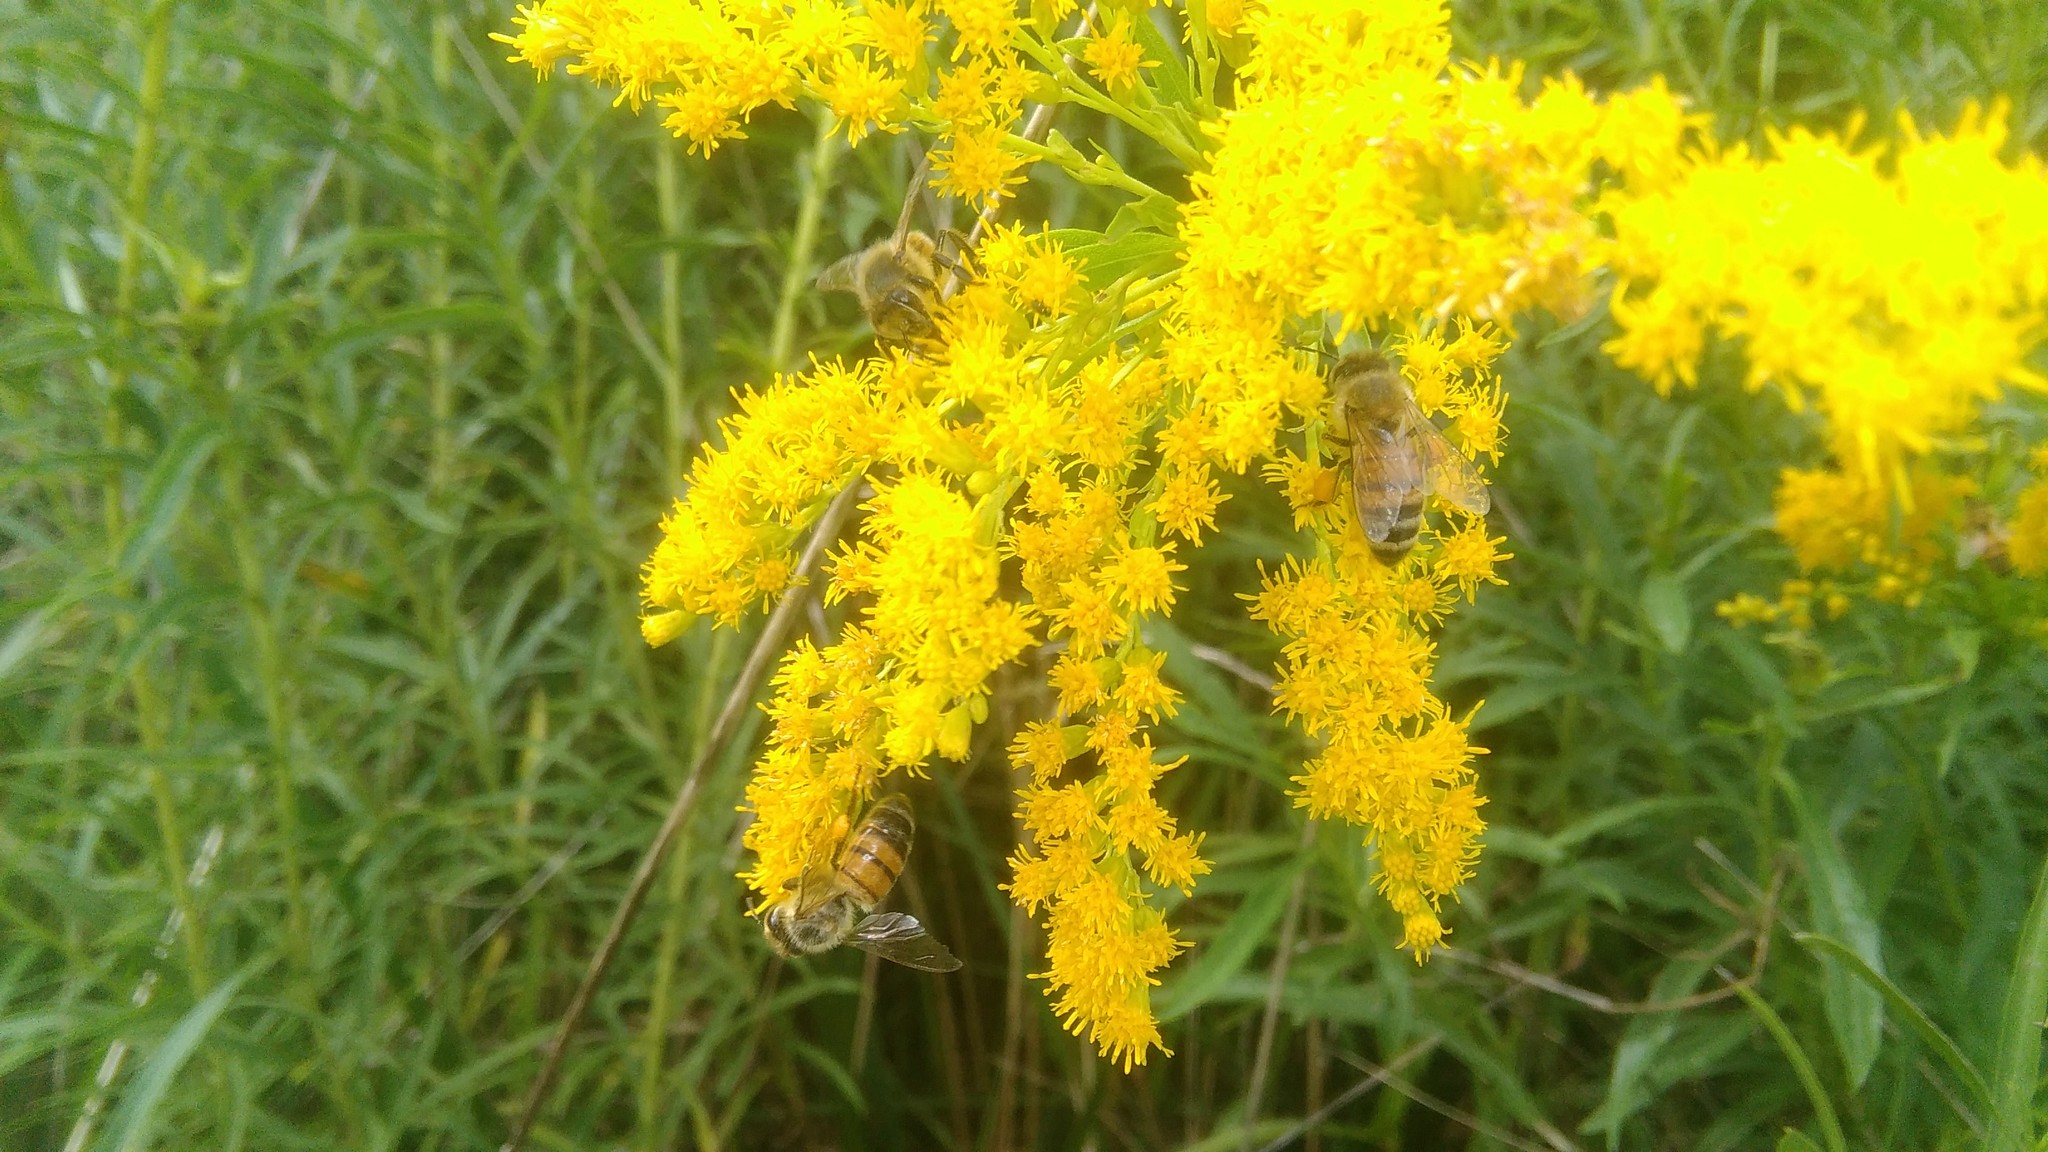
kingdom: Plantae
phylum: Tracheophyta
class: Magnoliopsida
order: Asterales
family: Asteraceae
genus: Solidago
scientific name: Solidago chilensis
